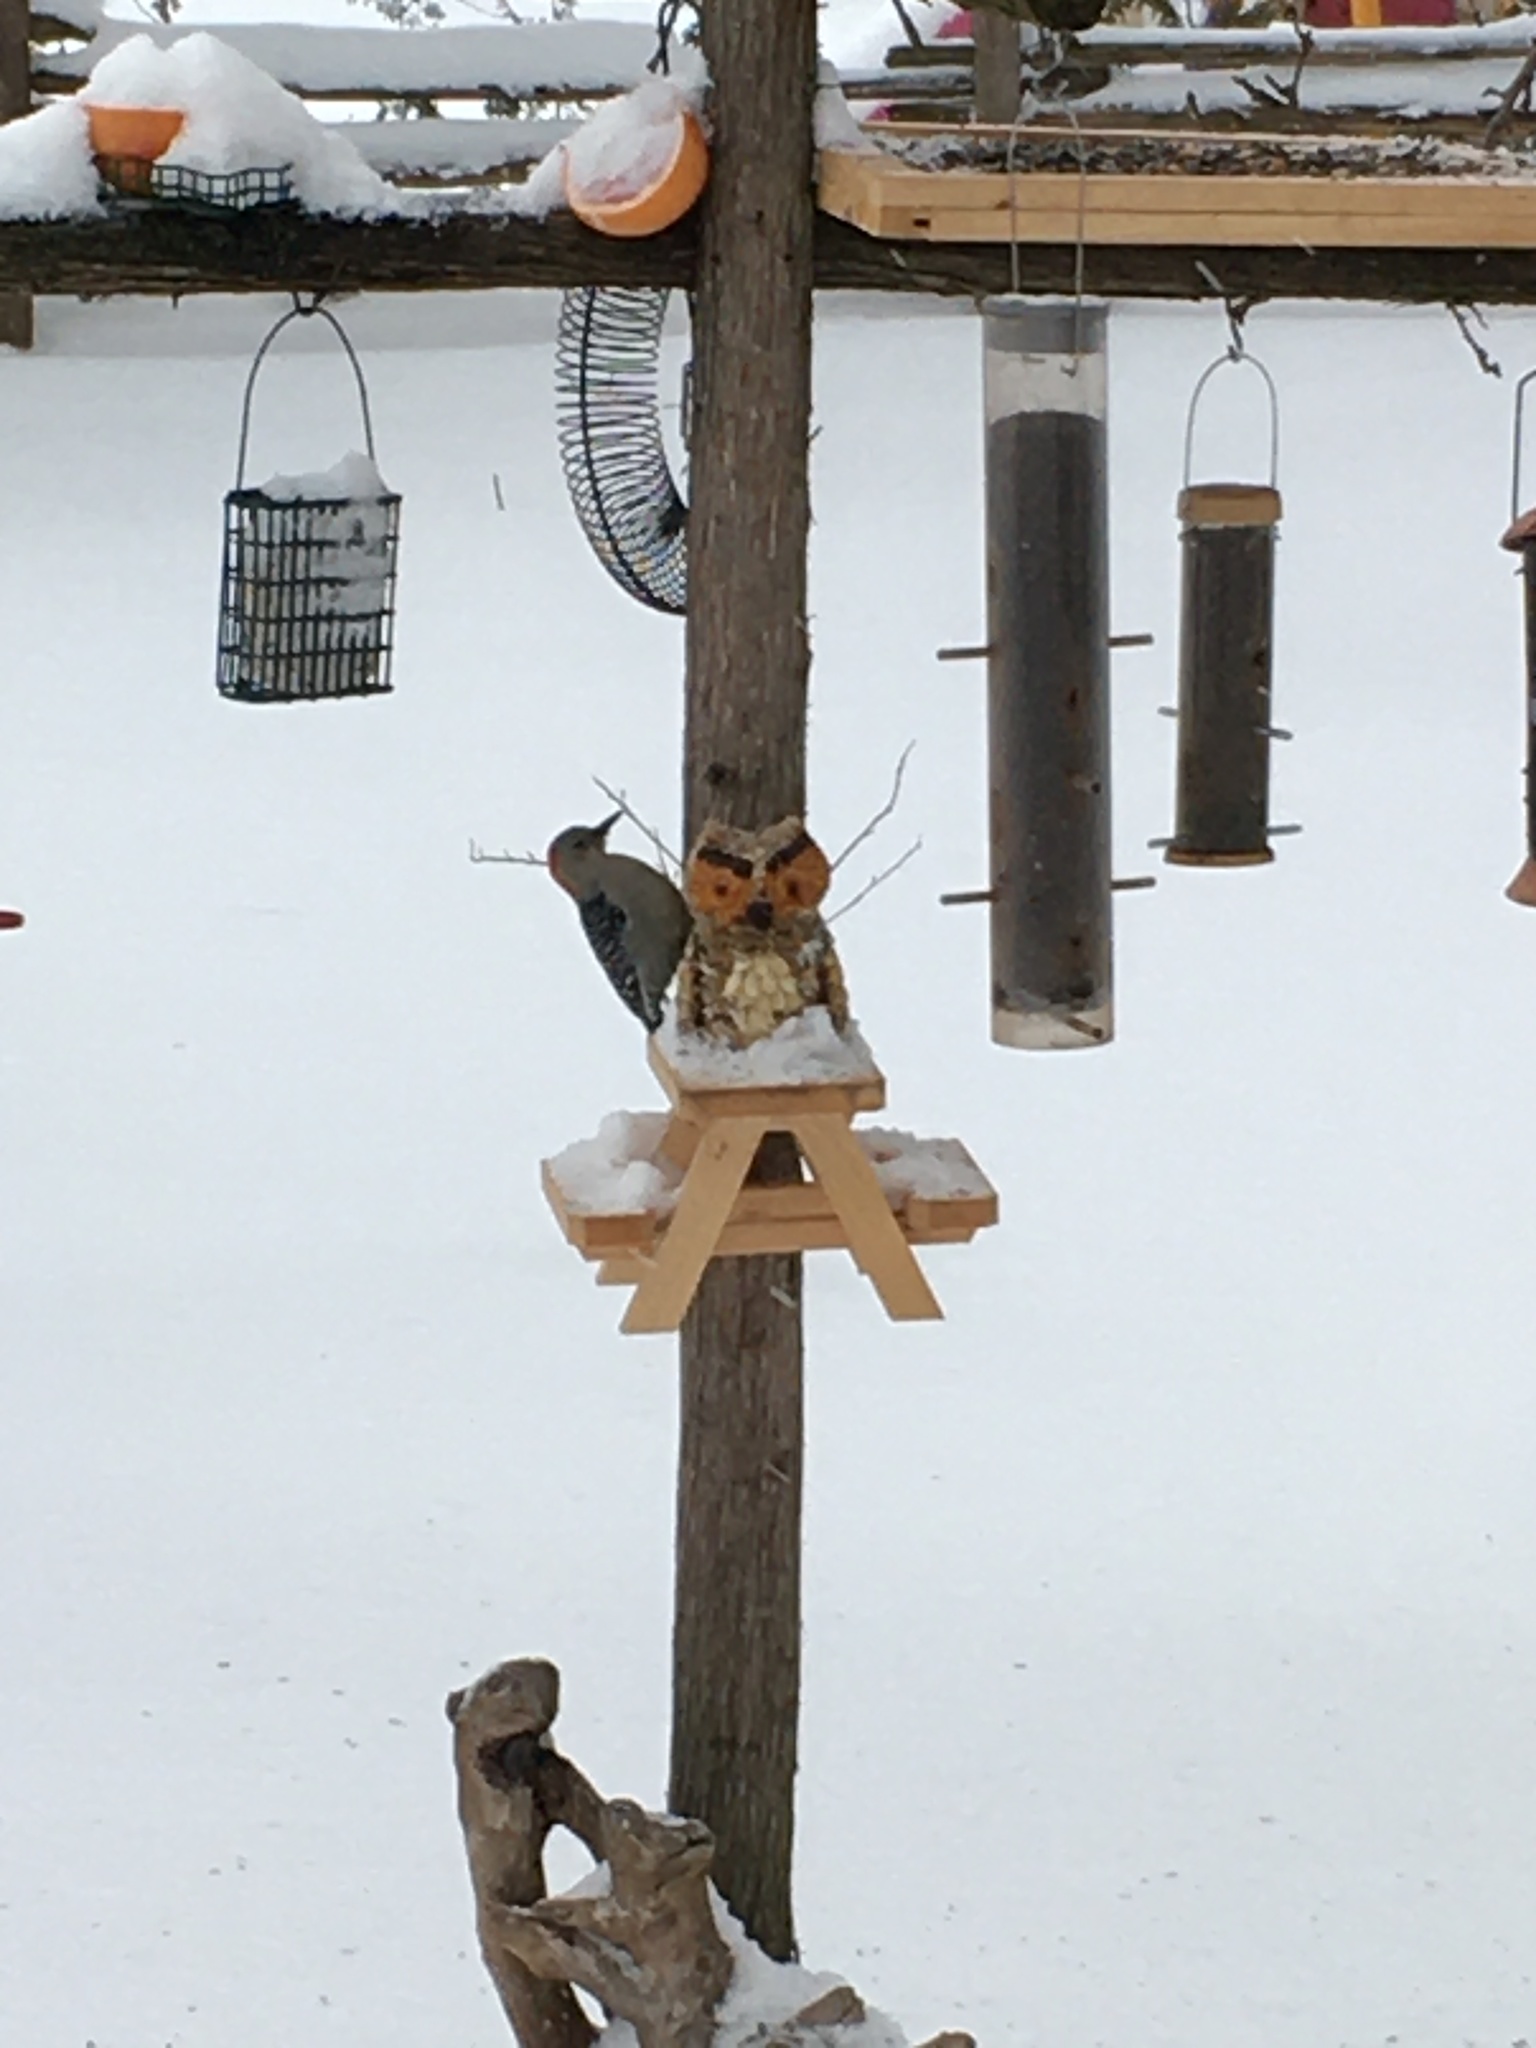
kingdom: Animalia
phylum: Chordata
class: Aves
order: Piciformes
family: Picidae
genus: Melanerpes
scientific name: Melanerpes carolinus
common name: Red-bellied woodpecker
